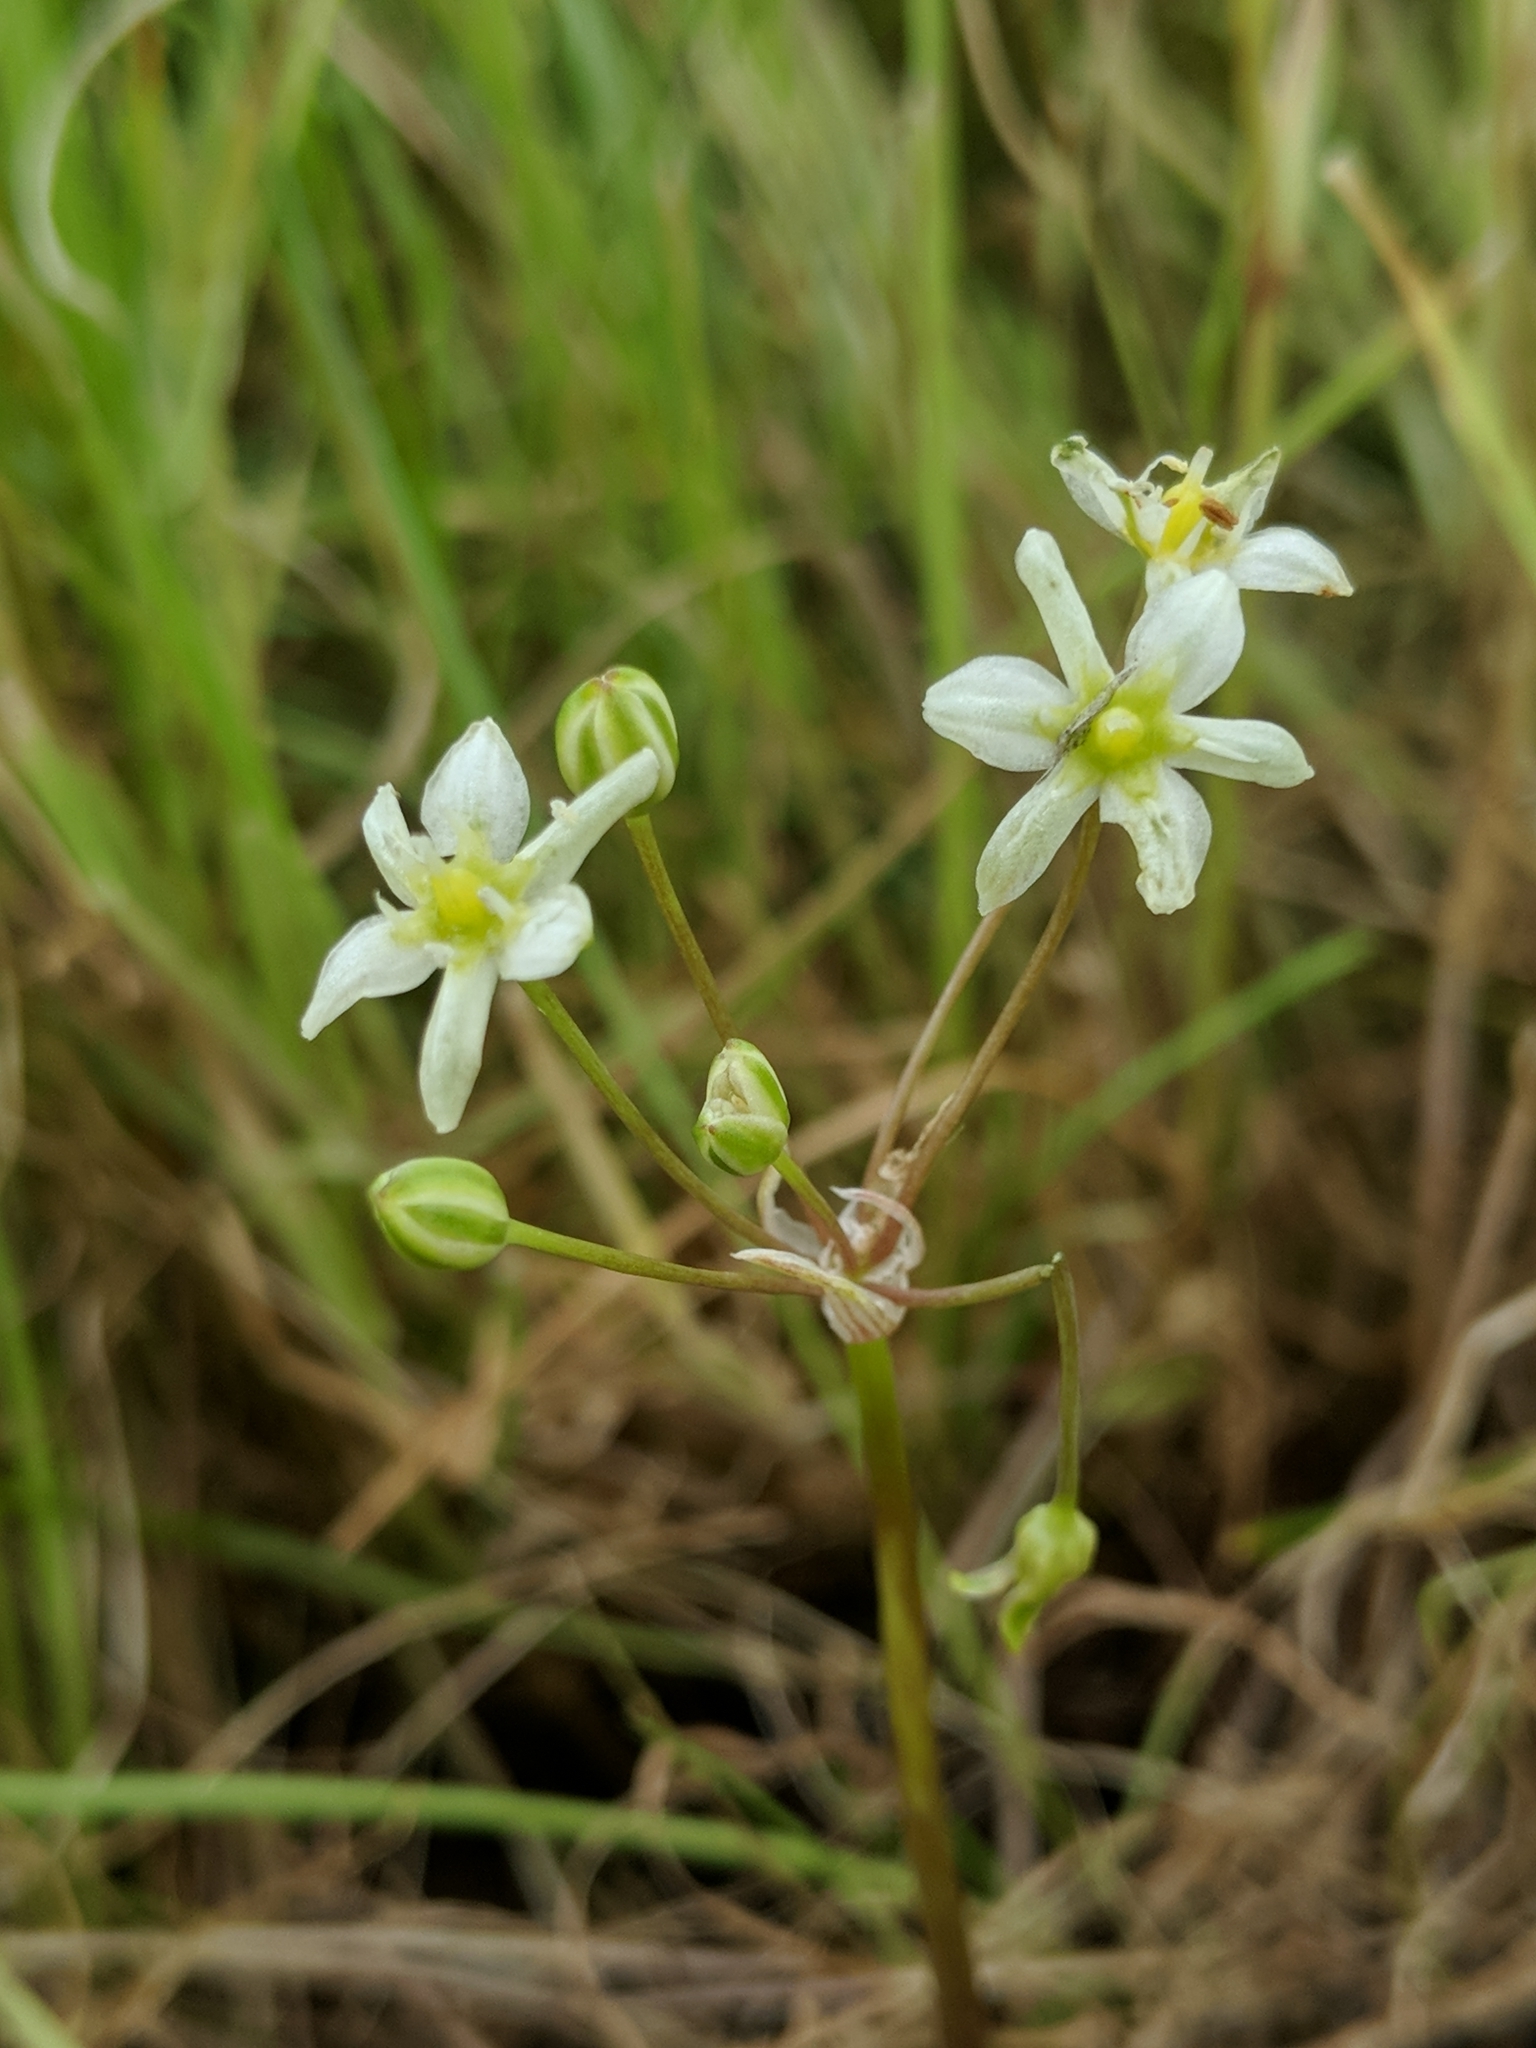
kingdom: Plantae
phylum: Tracheophyta
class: Liliopsida
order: Asparagales
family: Asparagaceae
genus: Muilla
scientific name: Muilla maritima
